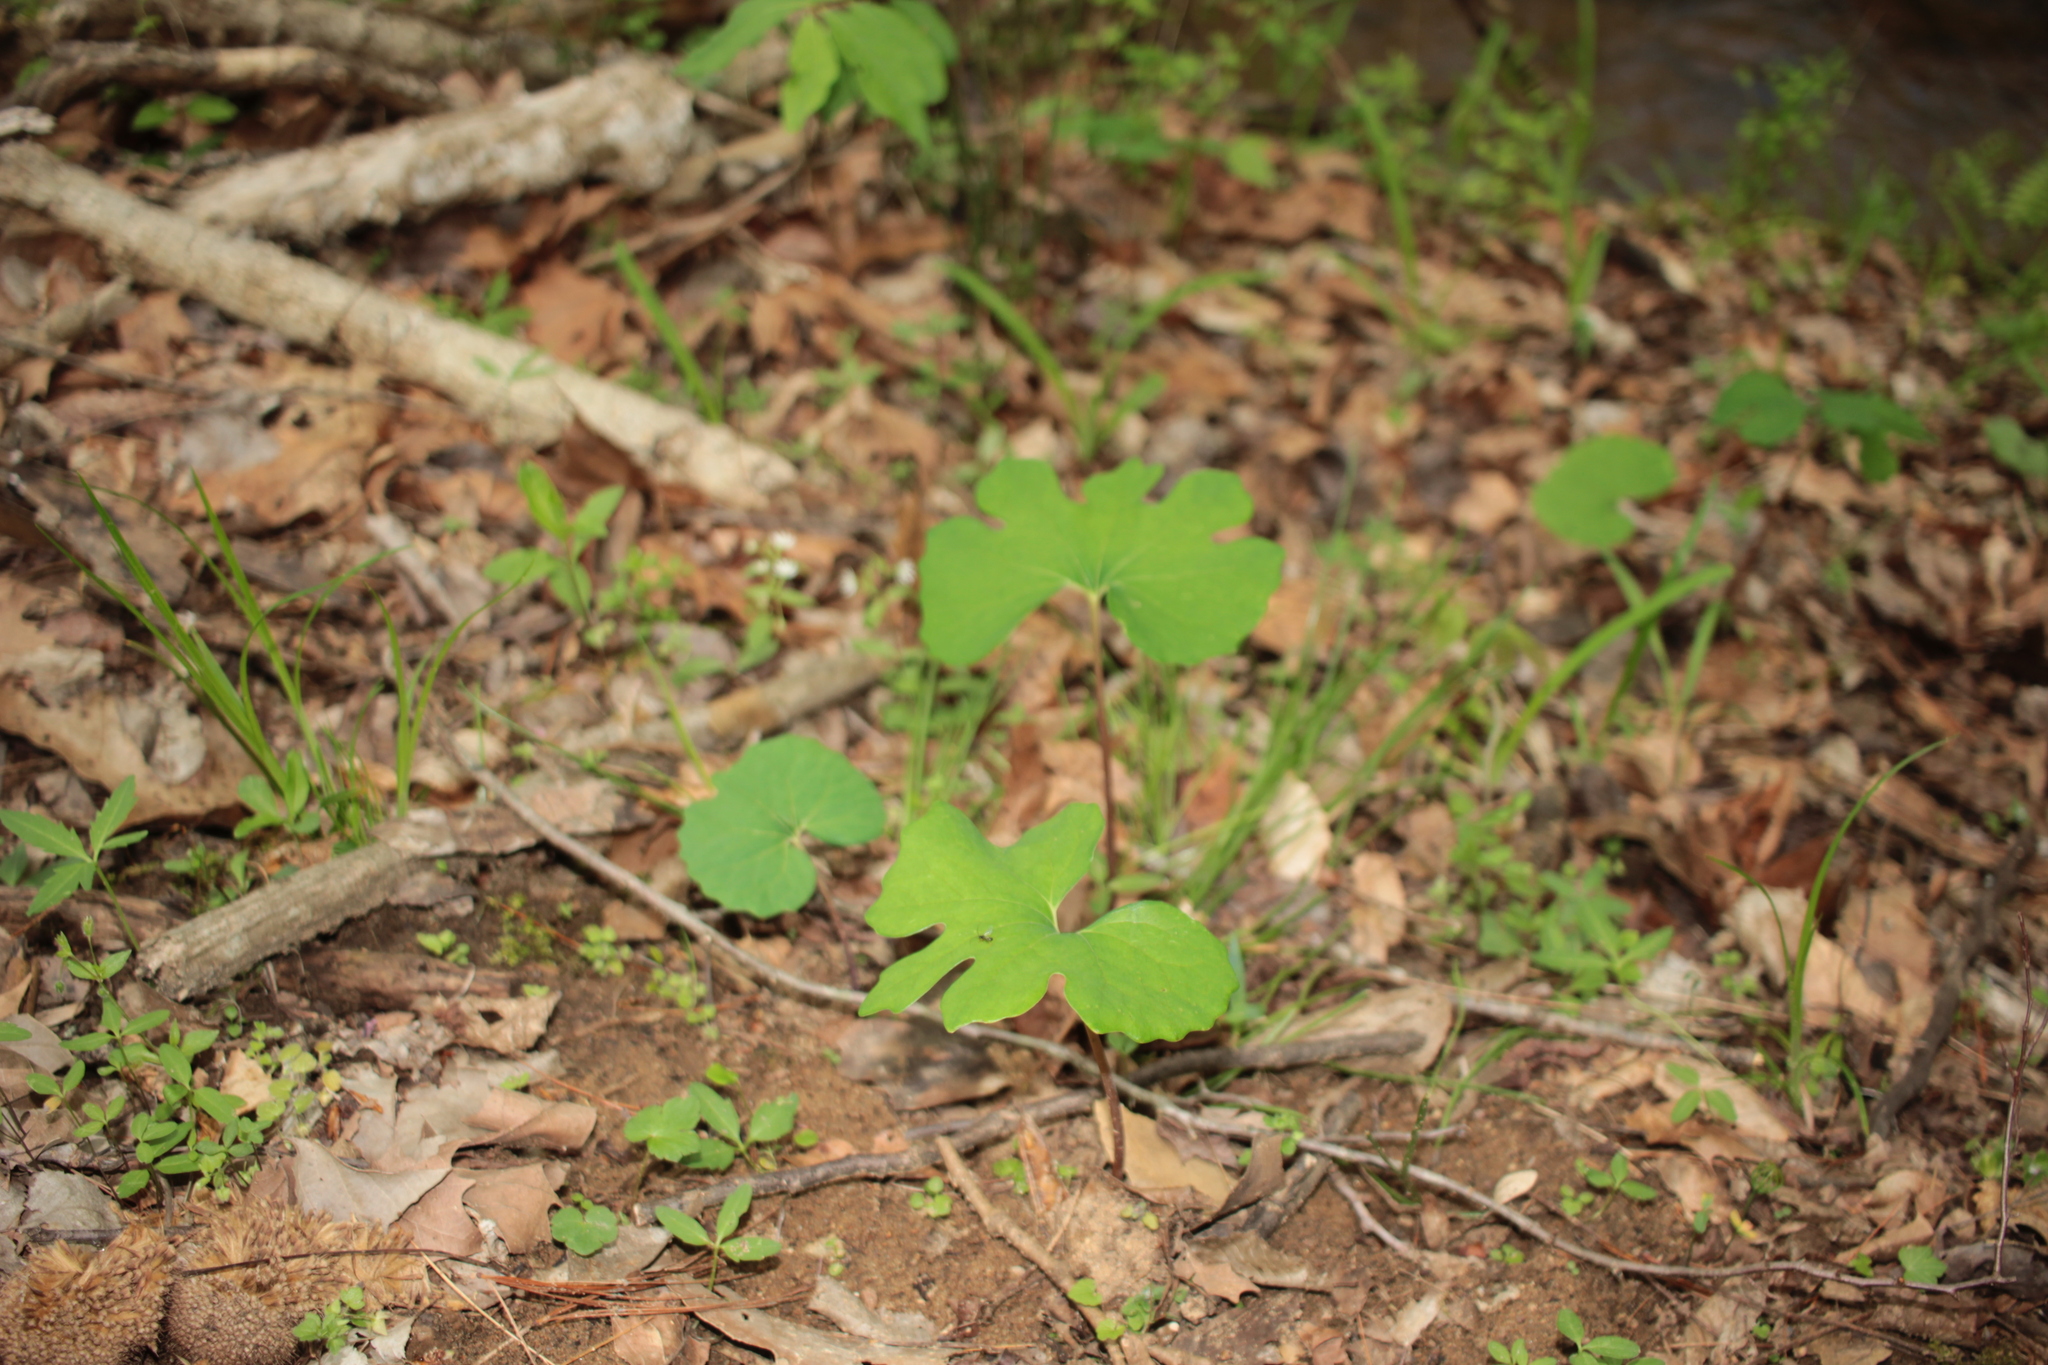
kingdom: Plantae
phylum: Tracheophyta
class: Magnoliopsida
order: Ranunculales
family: Papaveraceae
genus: Sanguinaria
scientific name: Sanguinaria canadensis
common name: Bloodroot
